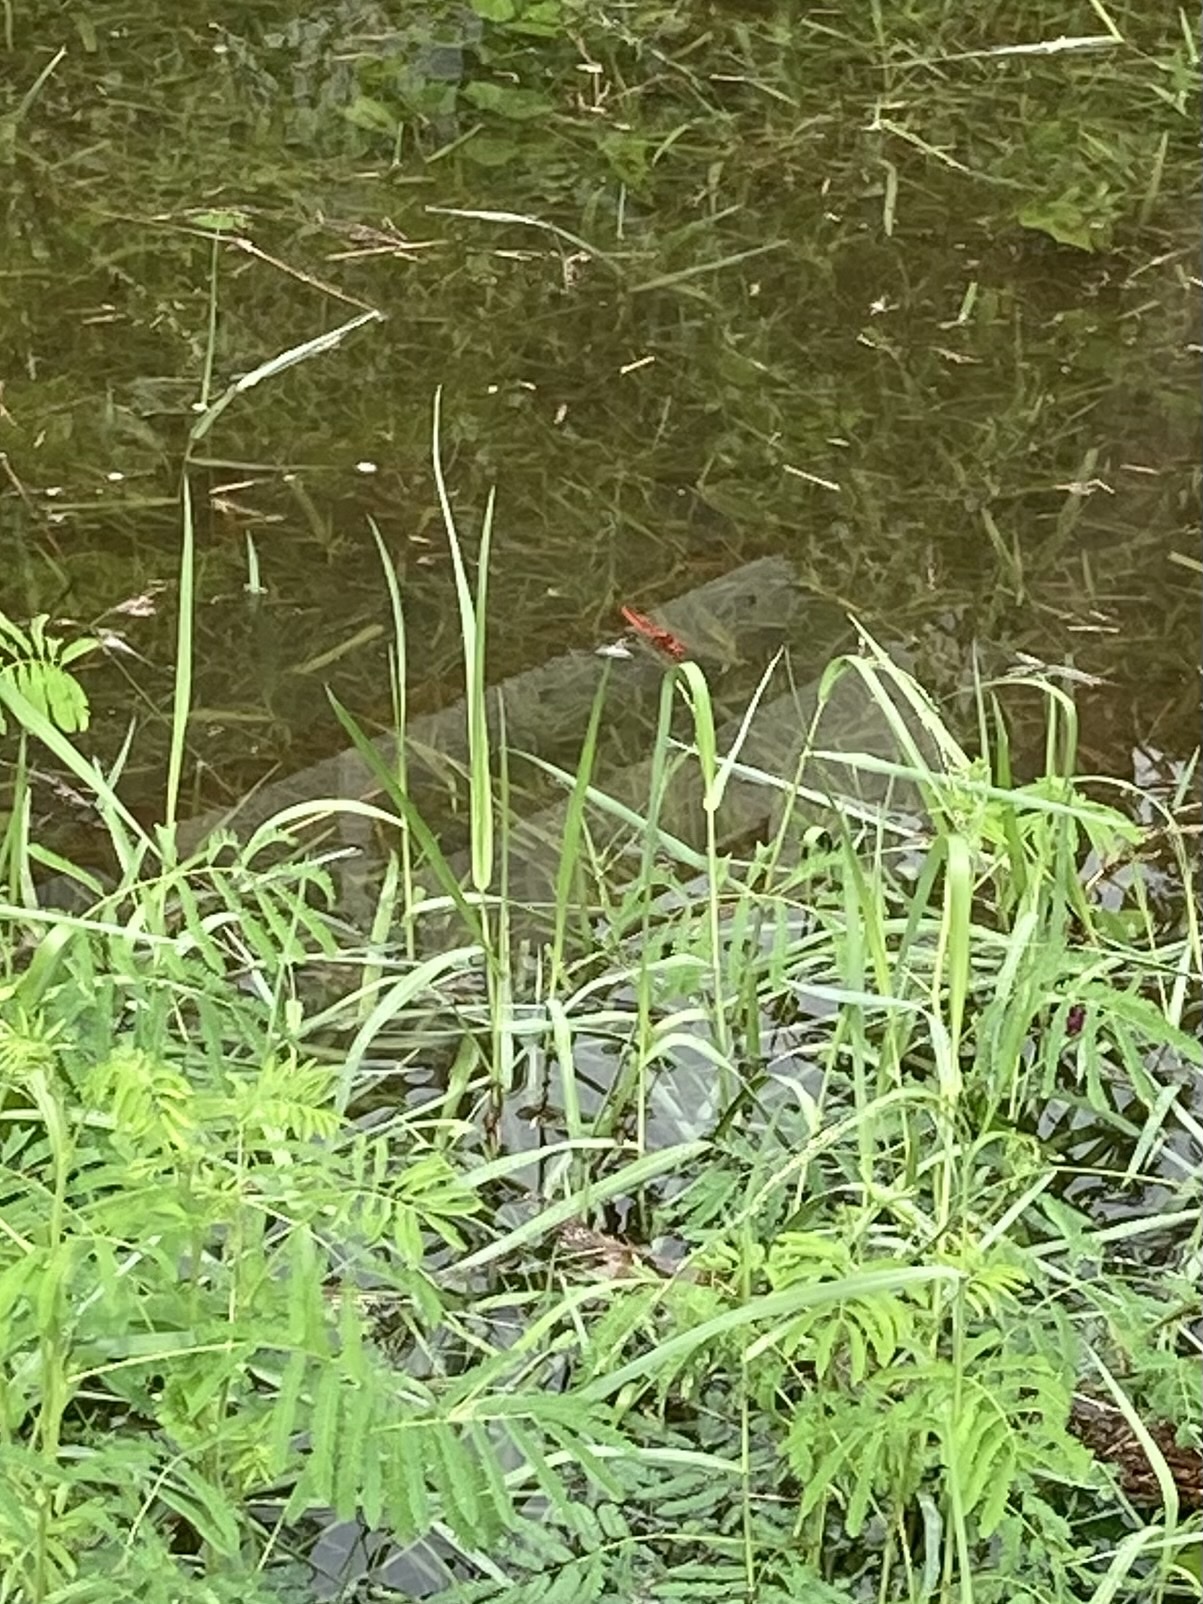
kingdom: Animalia
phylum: Arthropoda
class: Insecta
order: Odonata
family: Libellulidae
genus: Crocothemis
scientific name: Crocothemis servilia
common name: Scarlet skimmer
